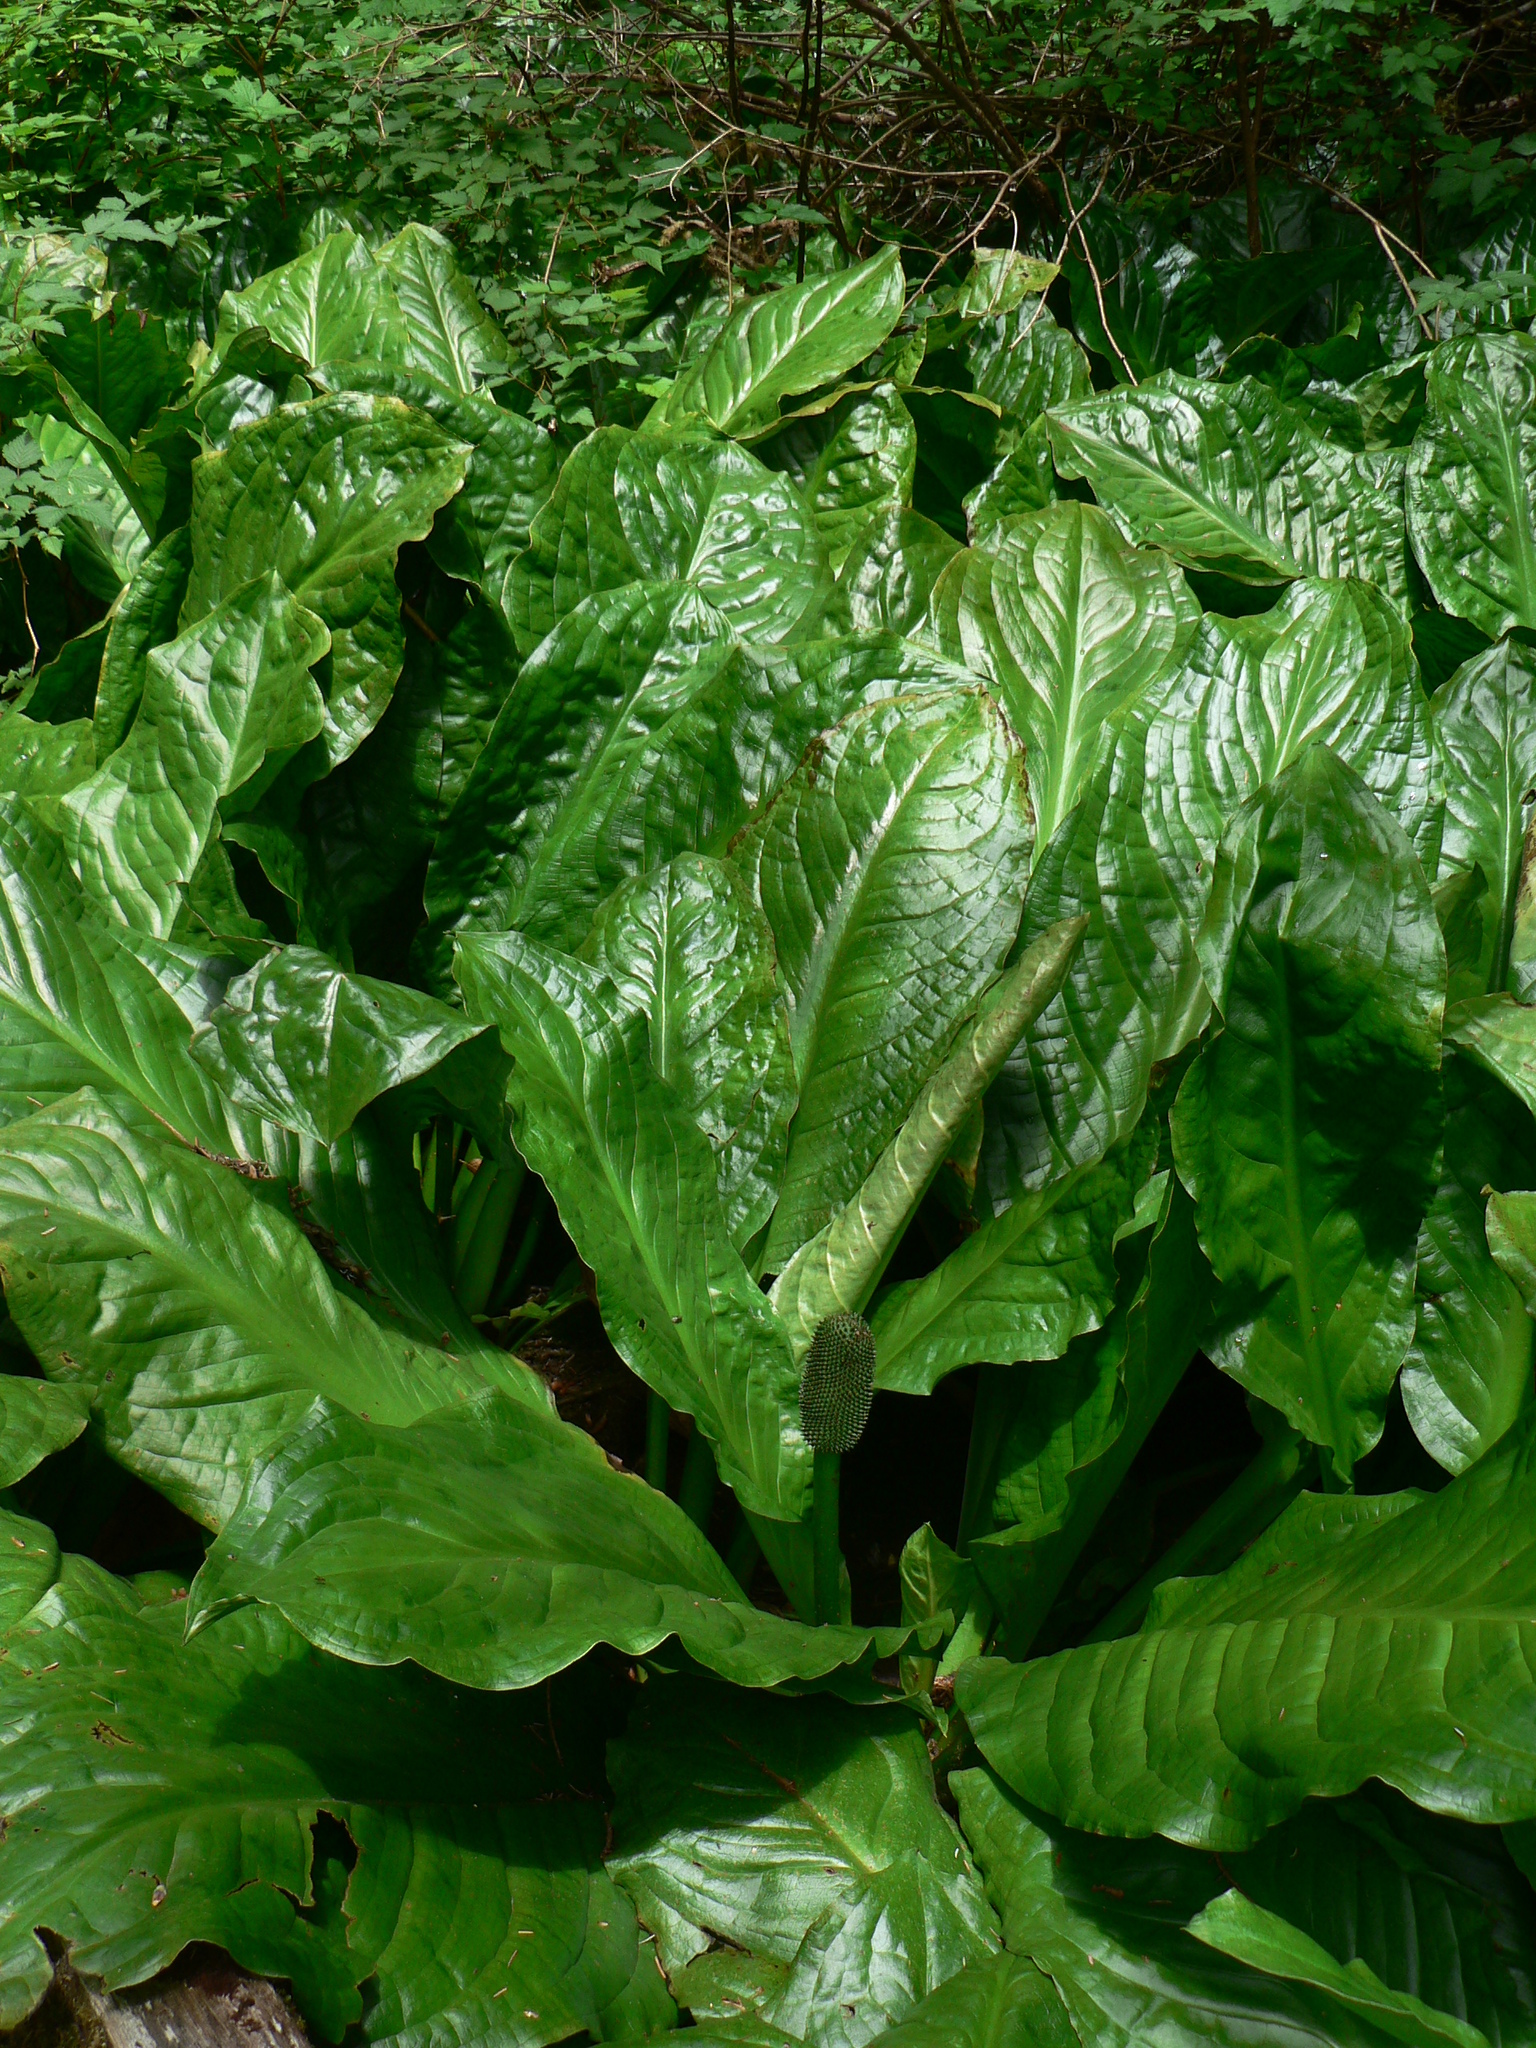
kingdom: Plantae
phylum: Tracheophyta
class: Liliopsida
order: Alismatales
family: Araceae
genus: Lysichiton
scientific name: Lysichiton americanus
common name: American skunk cabbage
